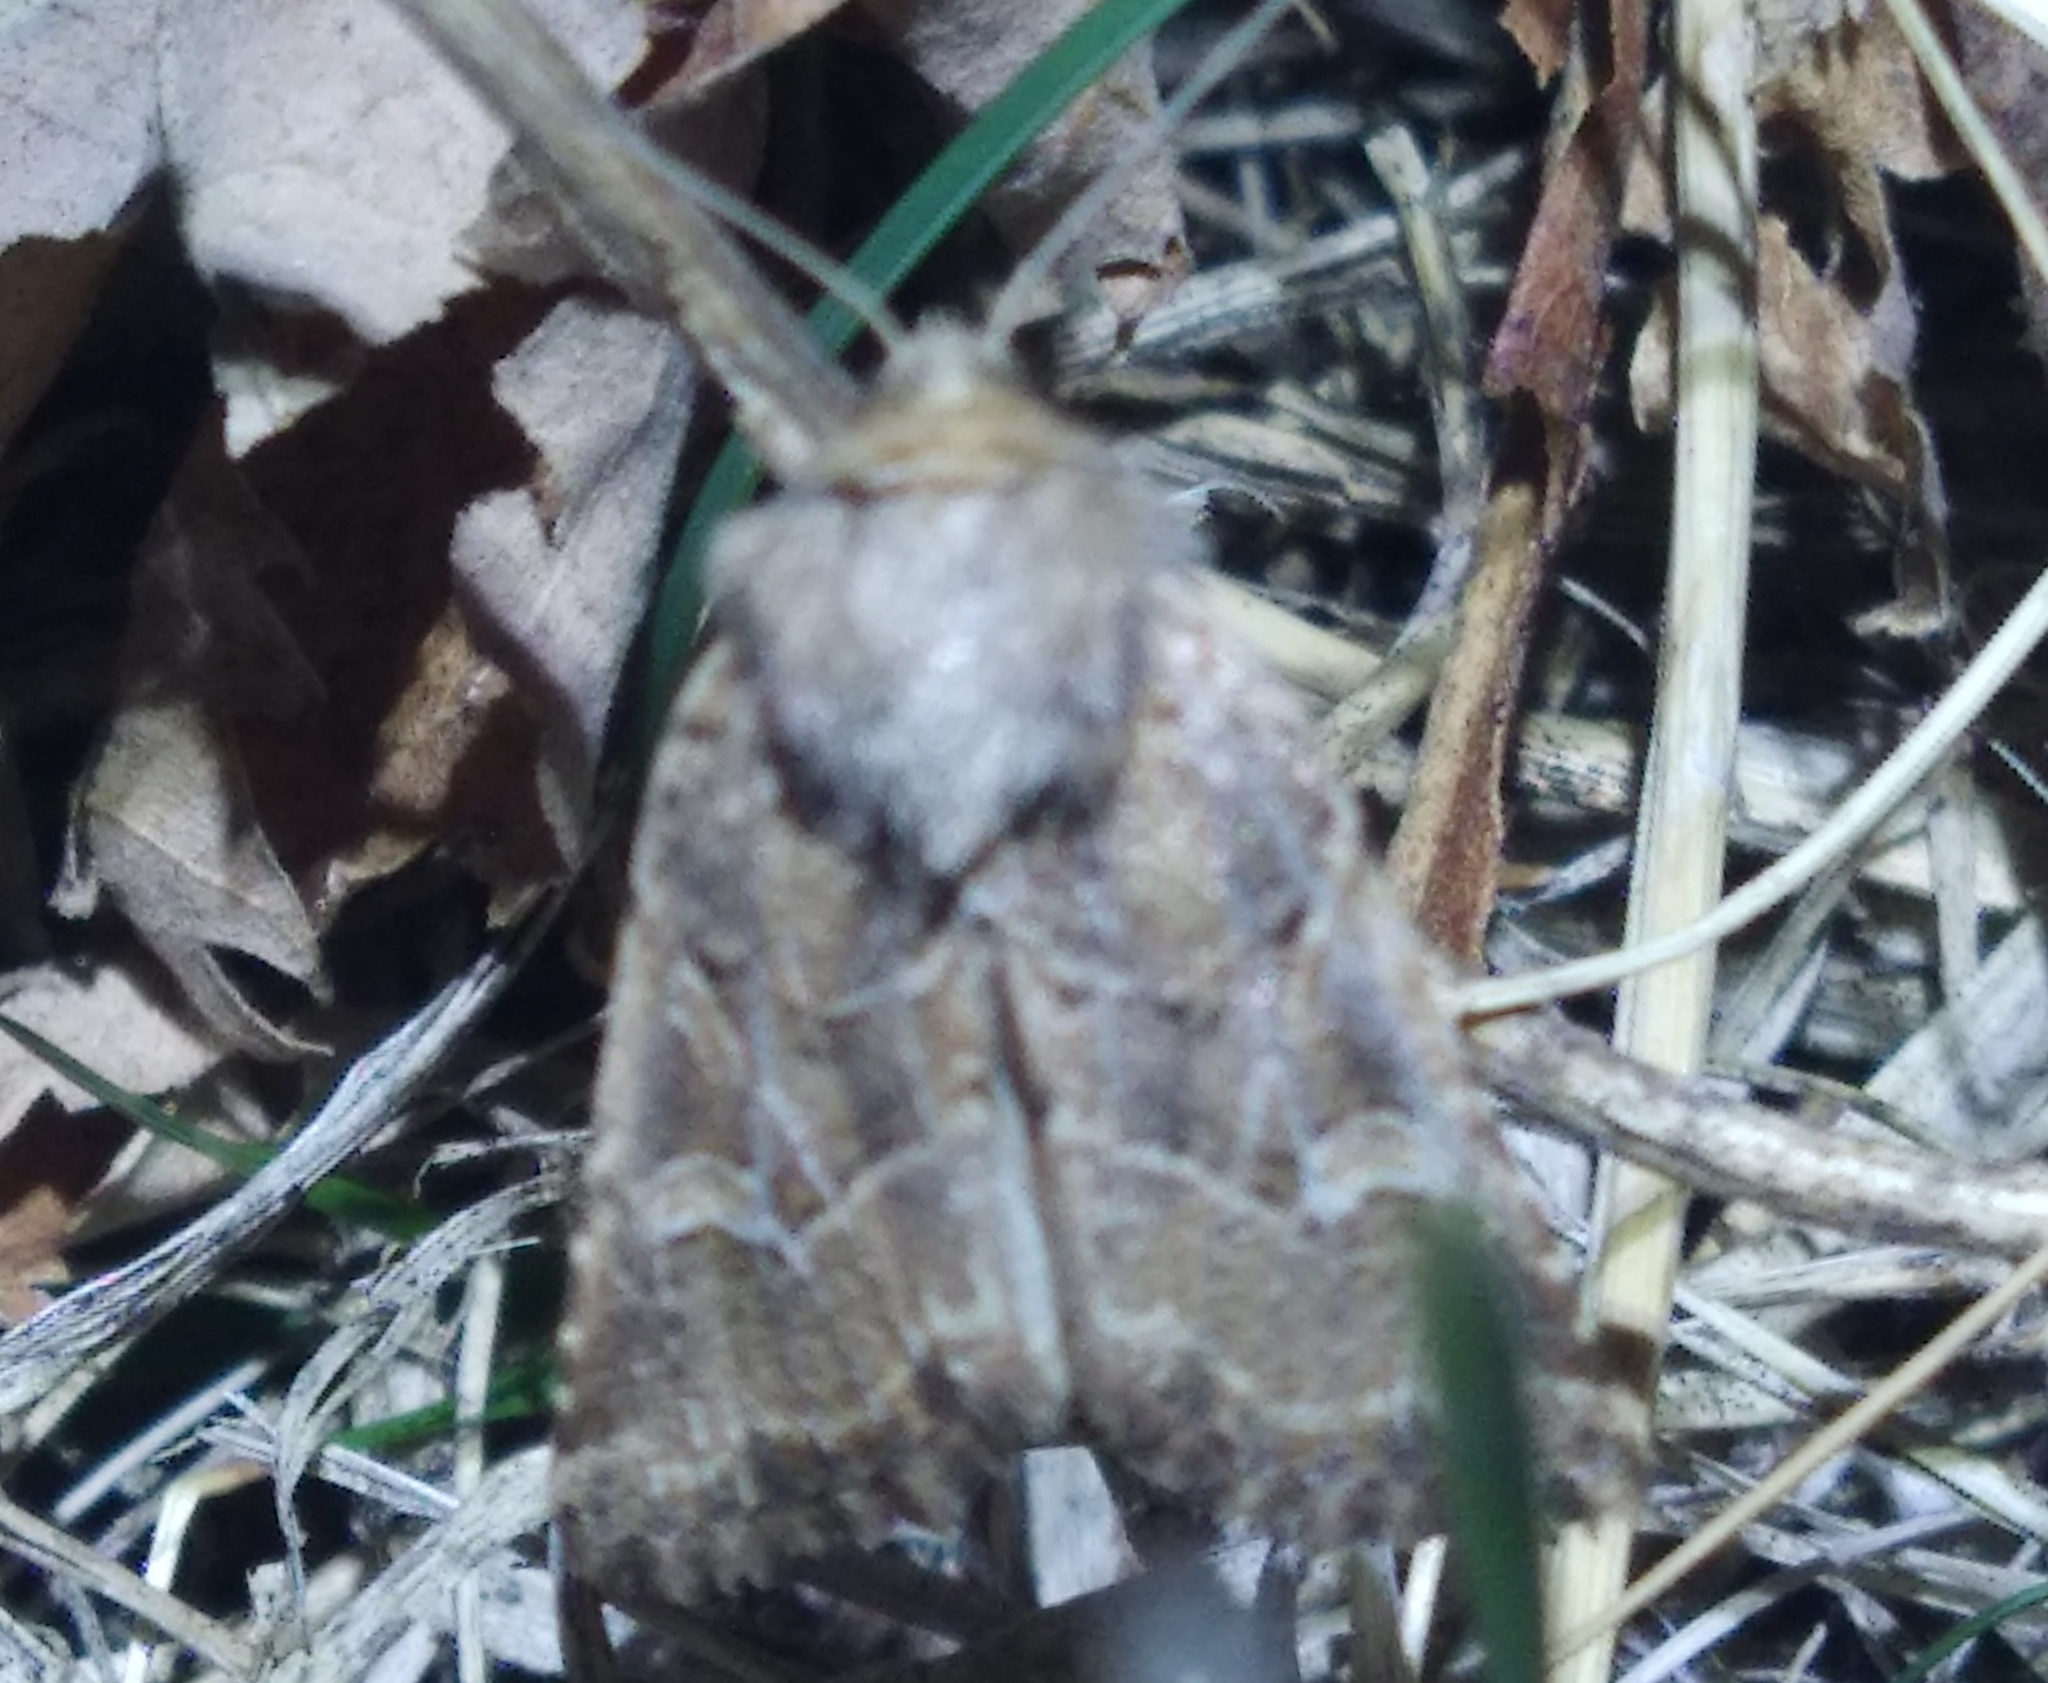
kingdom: Animalia
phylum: Arthropoda
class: Insecta
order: Lepidoptera
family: Noctuidae
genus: Luperina
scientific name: Luperina dumerilii
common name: Dumeril's rustic
